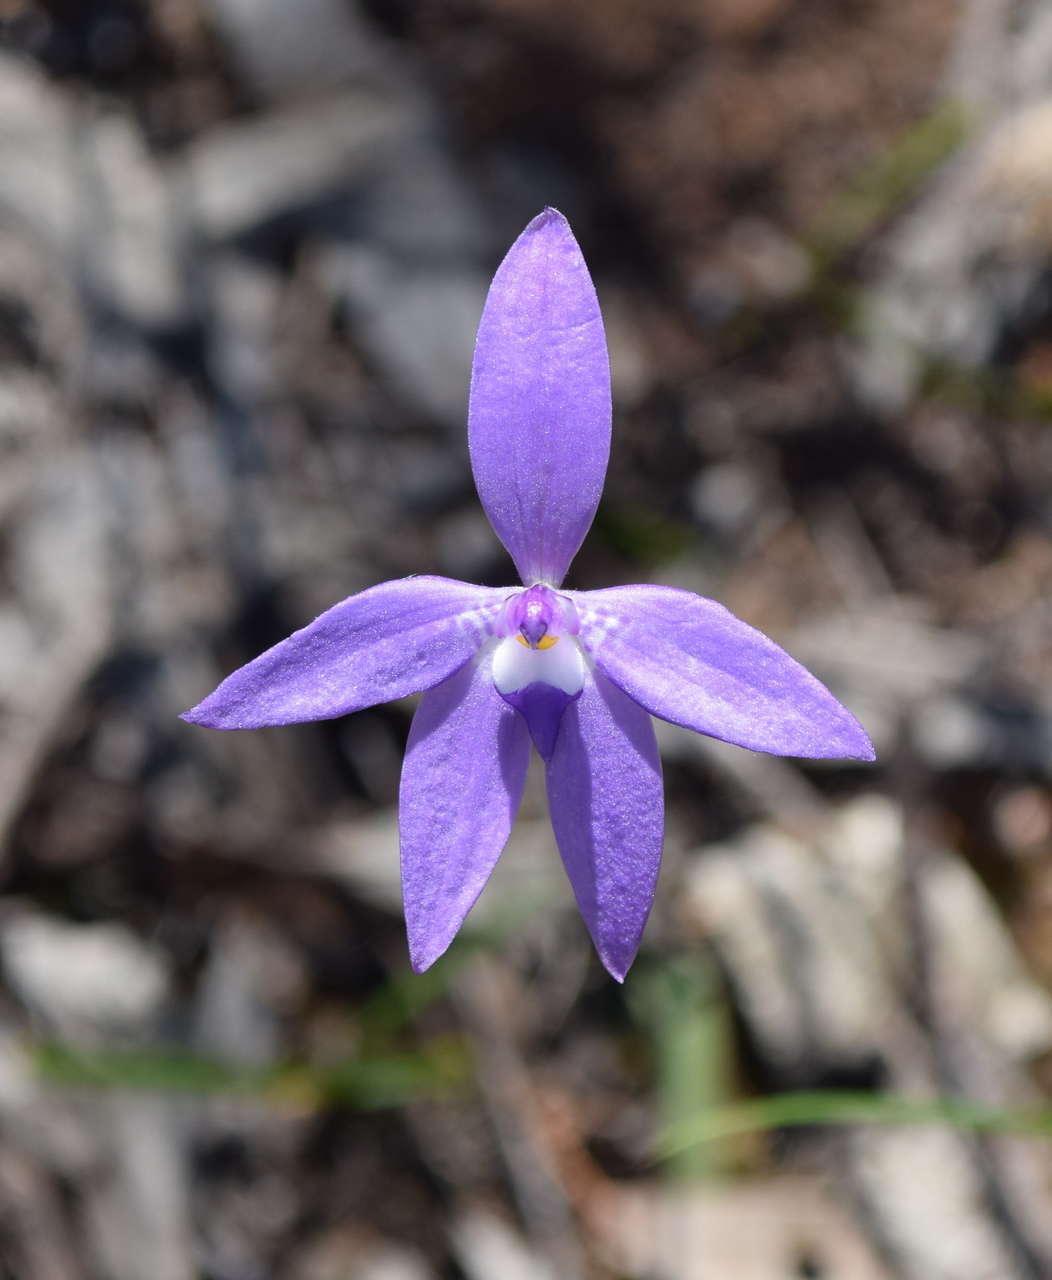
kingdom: Plantae
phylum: Tracheophyta
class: Liliopsida
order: Asparagales
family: Orchidaceae
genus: Caladenia
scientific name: Caladenia major
